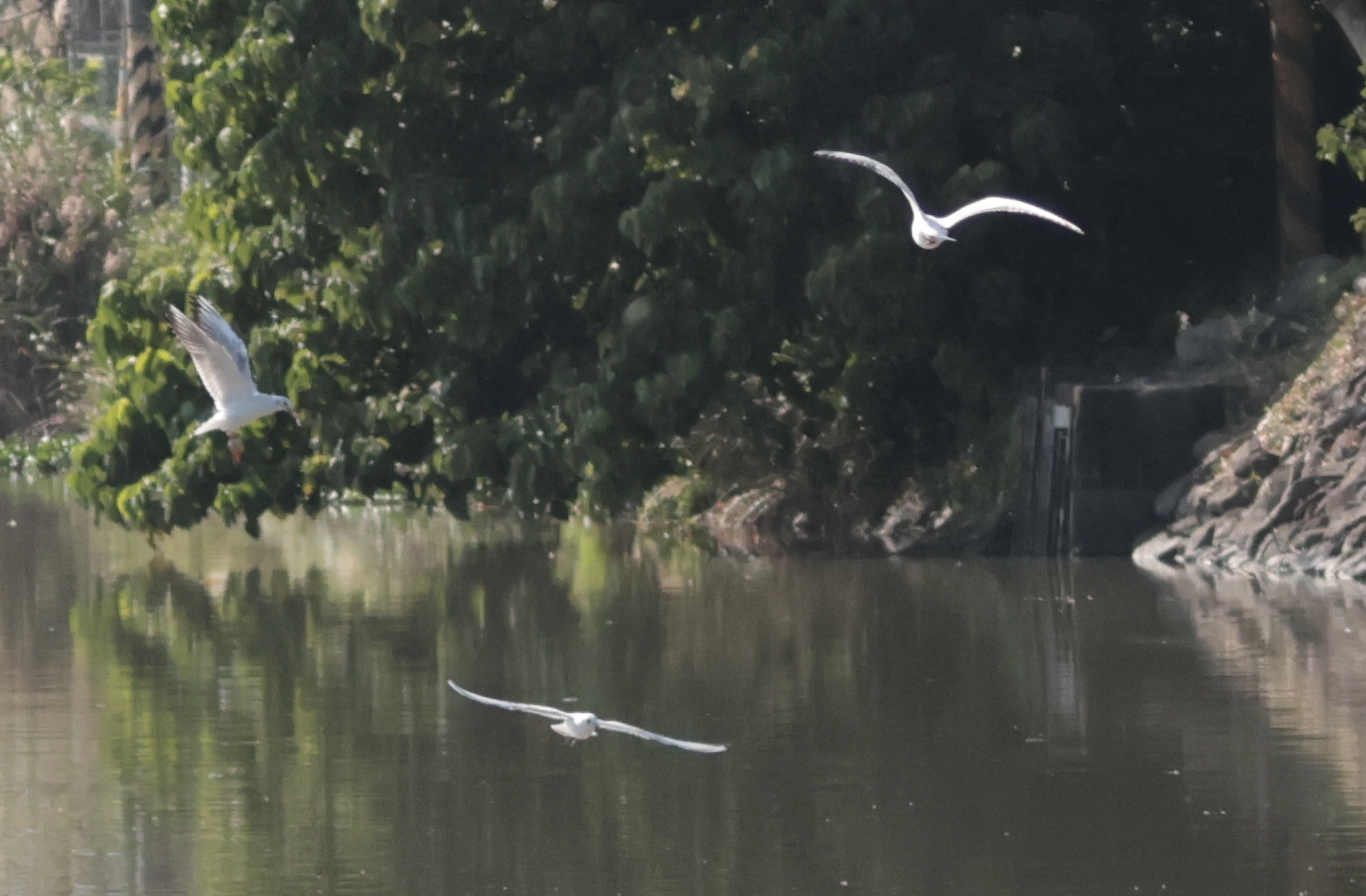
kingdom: Animalia
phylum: Chordata
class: Aves
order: Charadriiformes
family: Laridae
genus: Chroicocephalus
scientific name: Chroicocephalus ridibundus
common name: Black-headed gull
